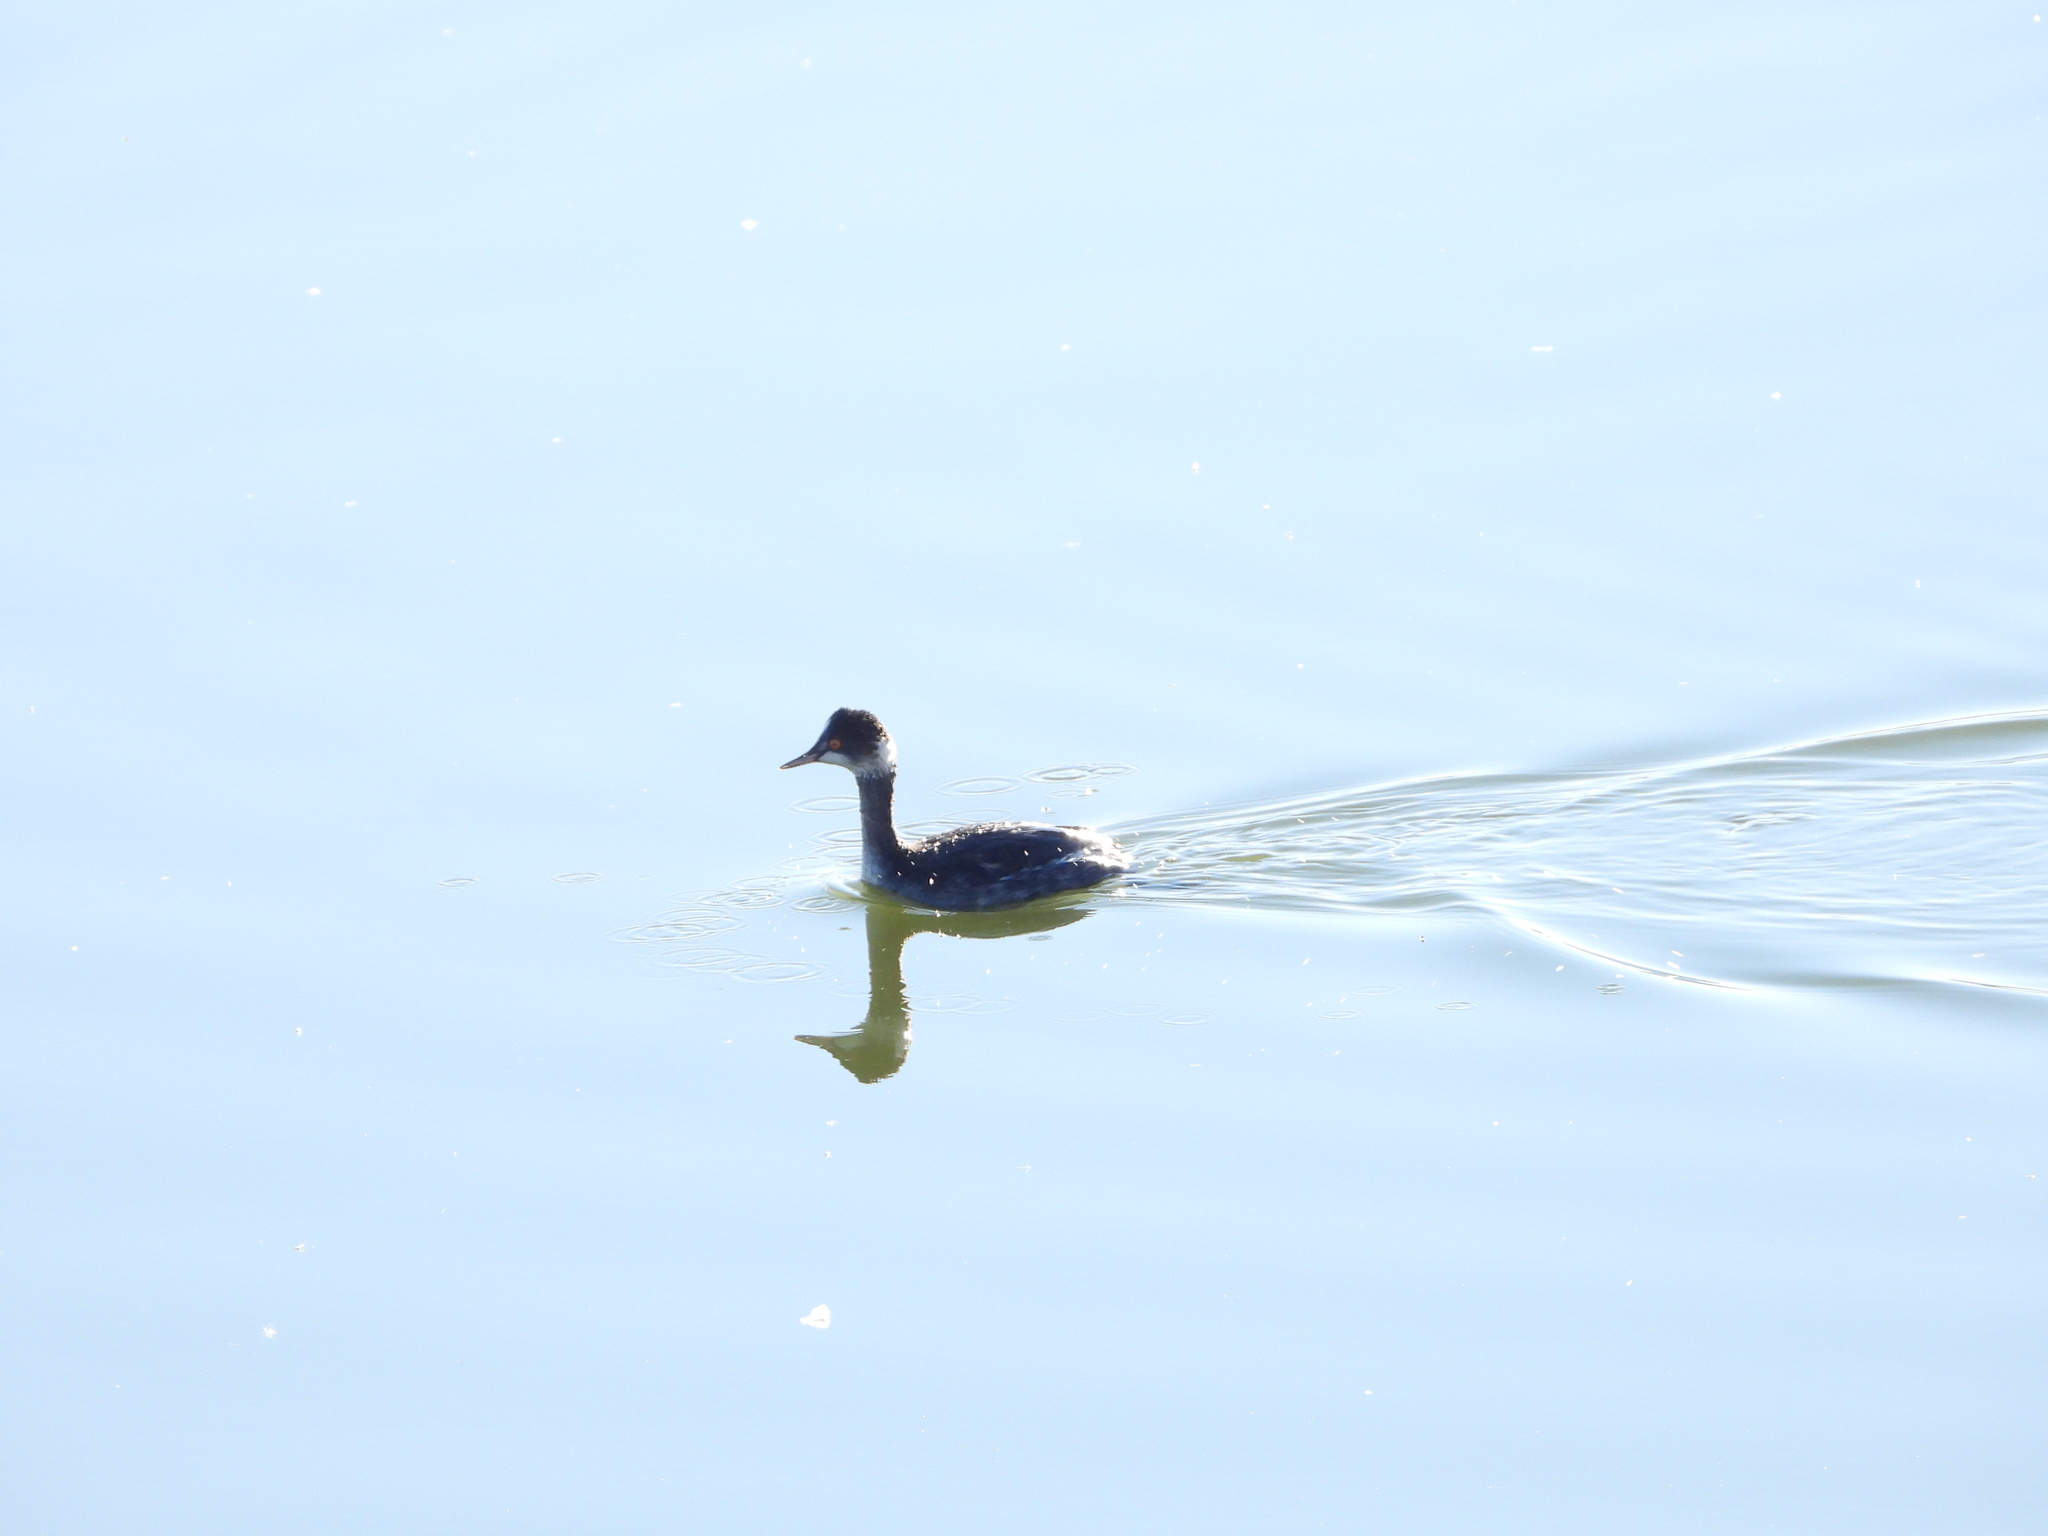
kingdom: Animalia
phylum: Chordata
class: Aves
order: Podicipediformes
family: Podicipedidae
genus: Podiceps
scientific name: Podiceps nigricollis
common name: Black-necked grebe
